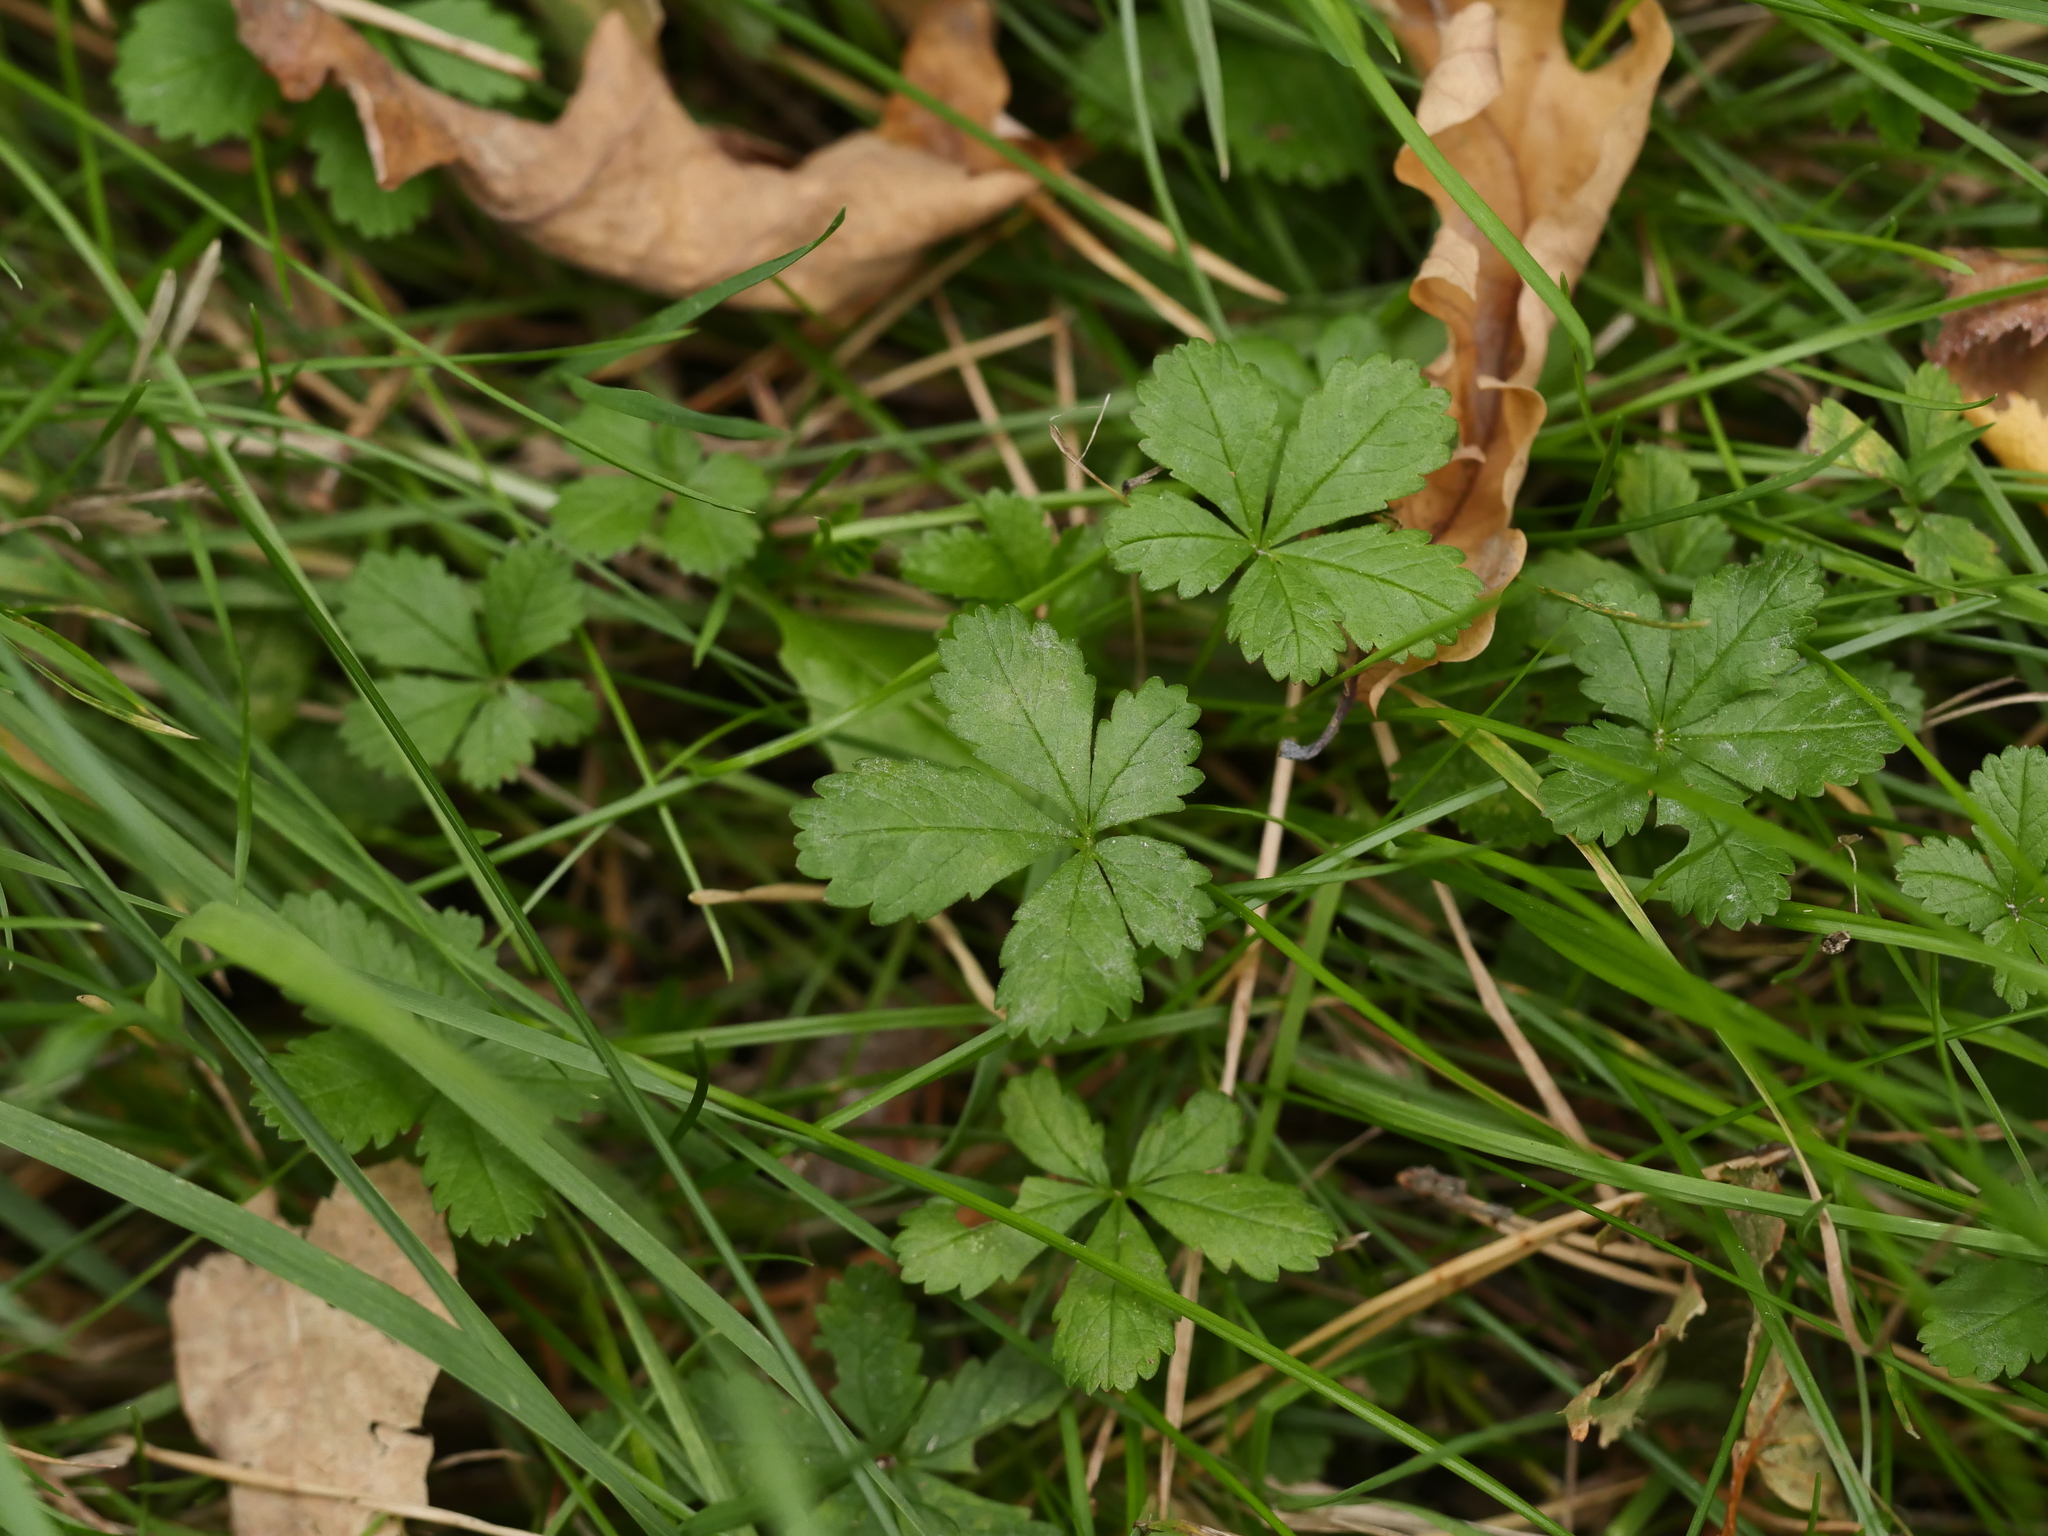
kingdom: Plantae
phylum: Tracheophyta
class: Magnoliopsida
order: Rosales
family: Rosaceae
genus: Potentilla
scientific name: Potentilla reptans
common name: Creeping cinquefoil
